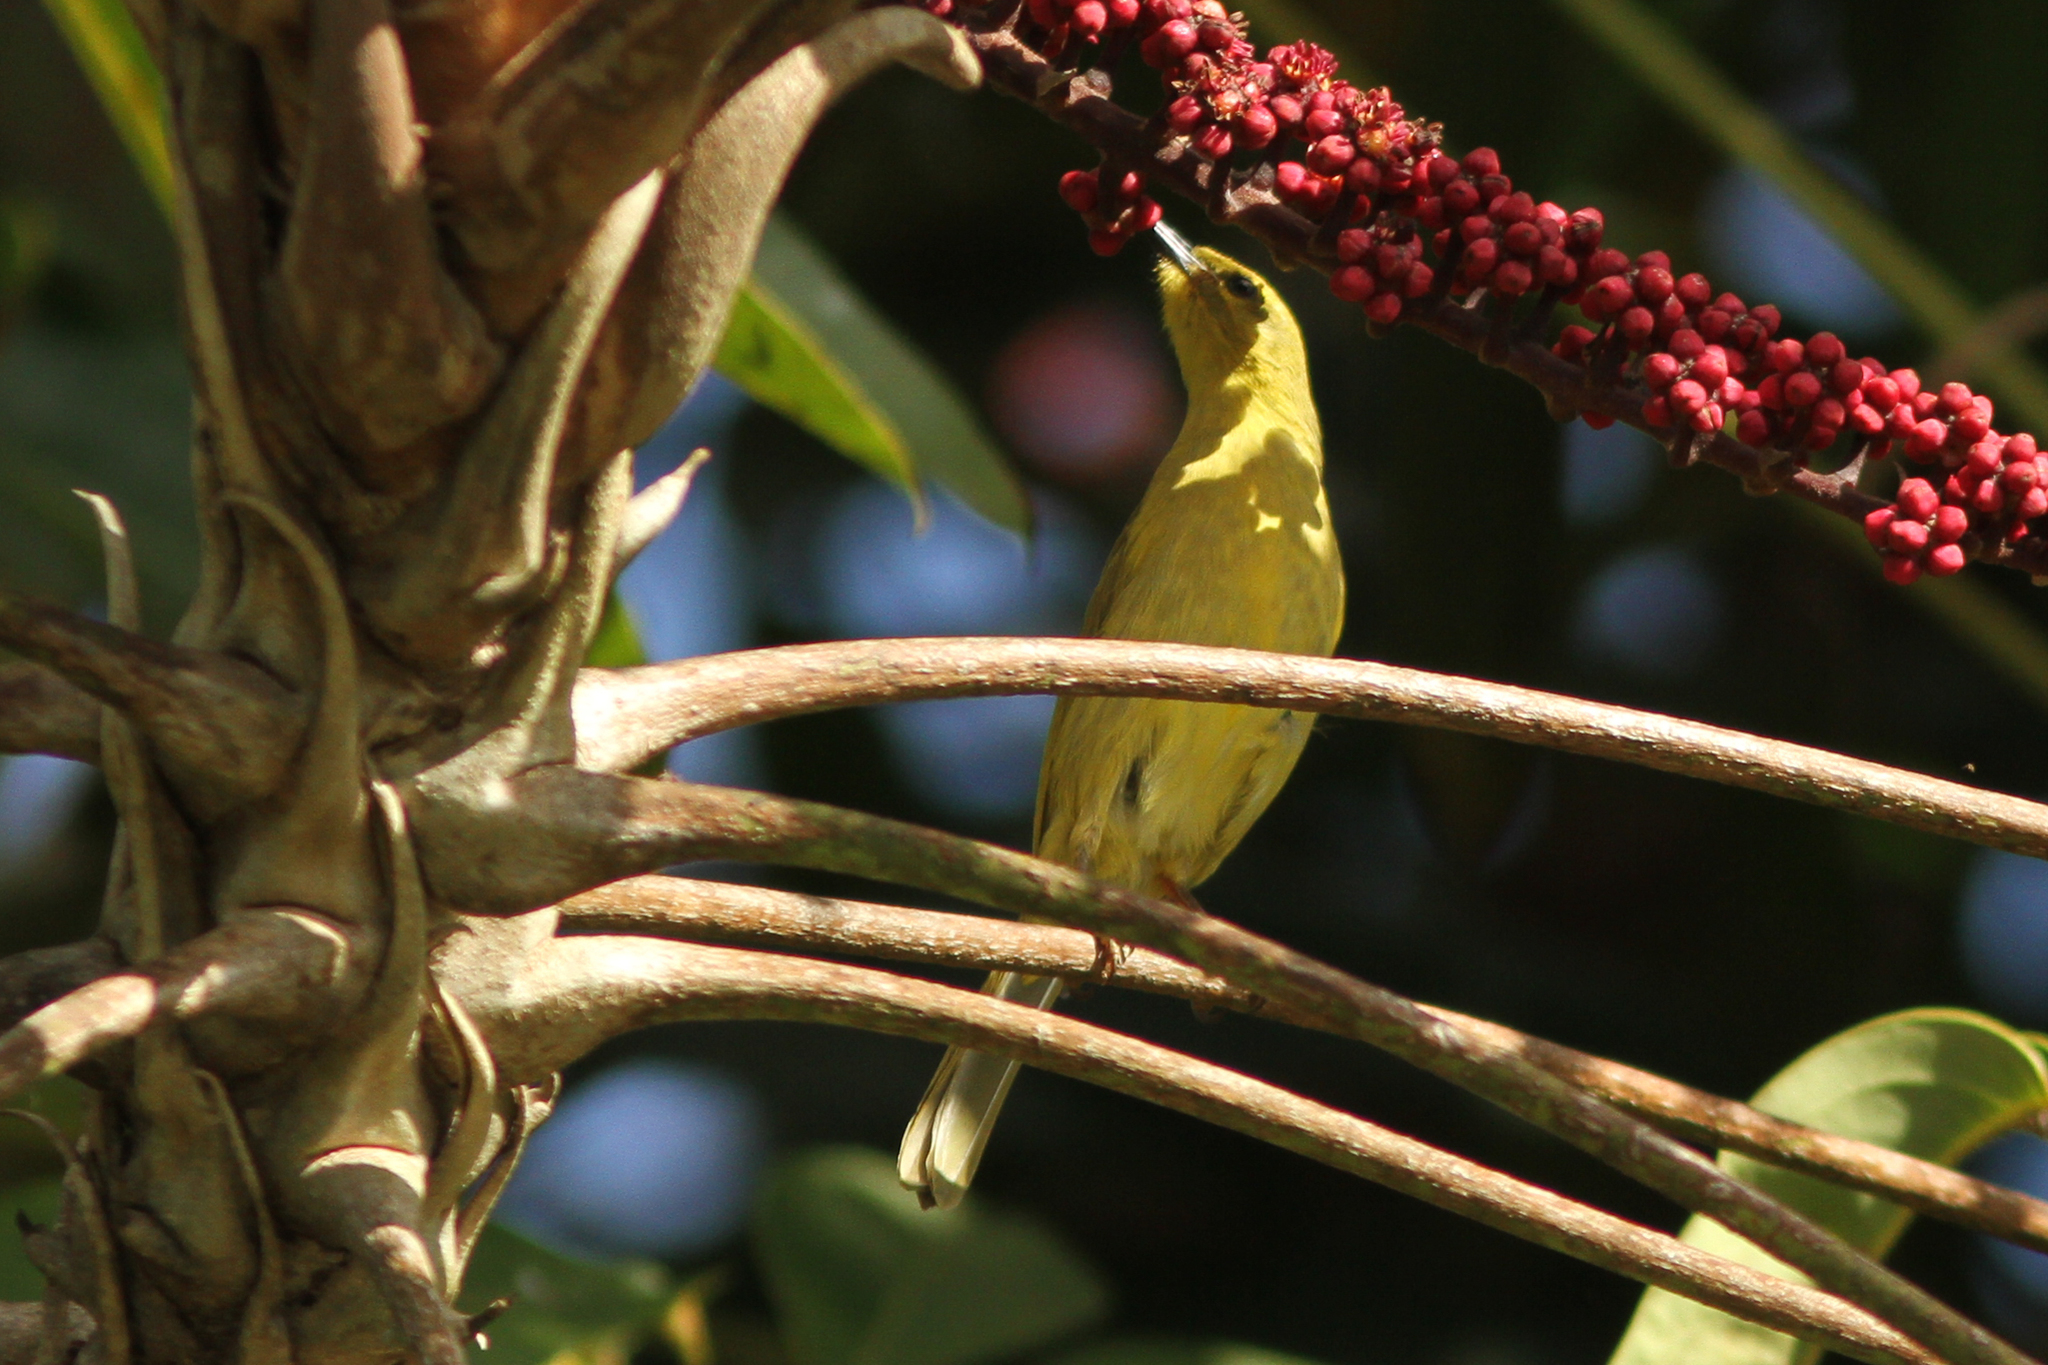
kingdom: Animalia
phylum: Chordata
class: Aves
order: Passeriformes
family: Meliphagidae
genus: Stomiopera
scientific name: Stomiopera flava
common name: Yellow honeyeater
